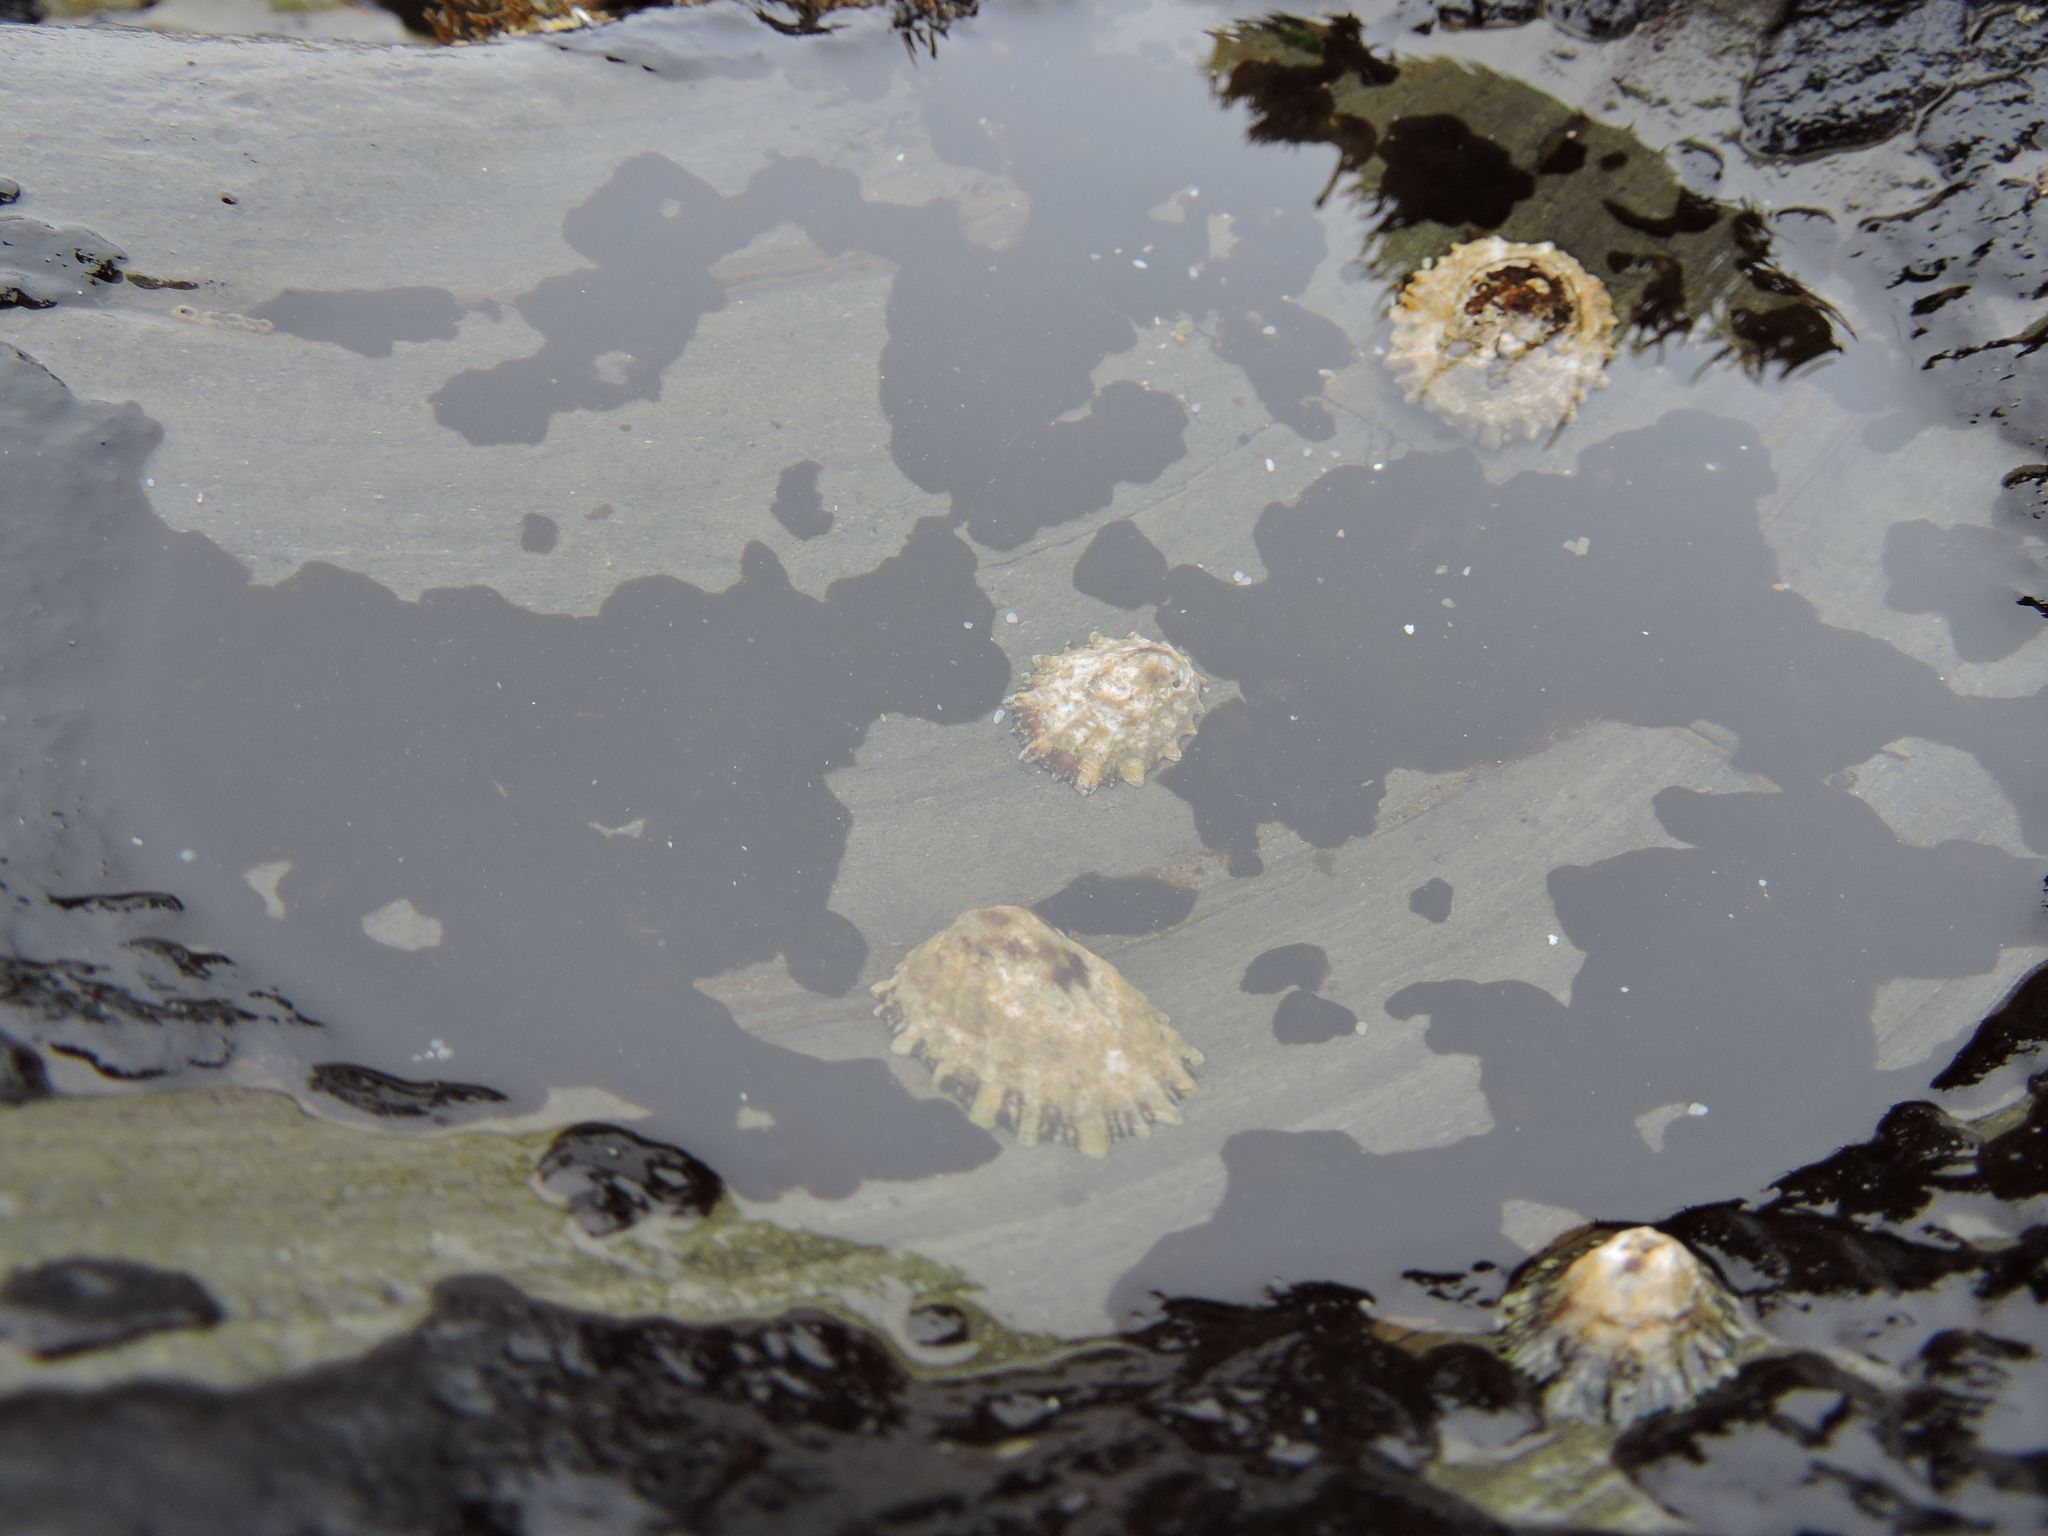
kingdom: Animalia
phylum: Mollusca
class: Gastropoda
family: Lottiidae
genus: Lottia
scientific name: Lottia scabra
